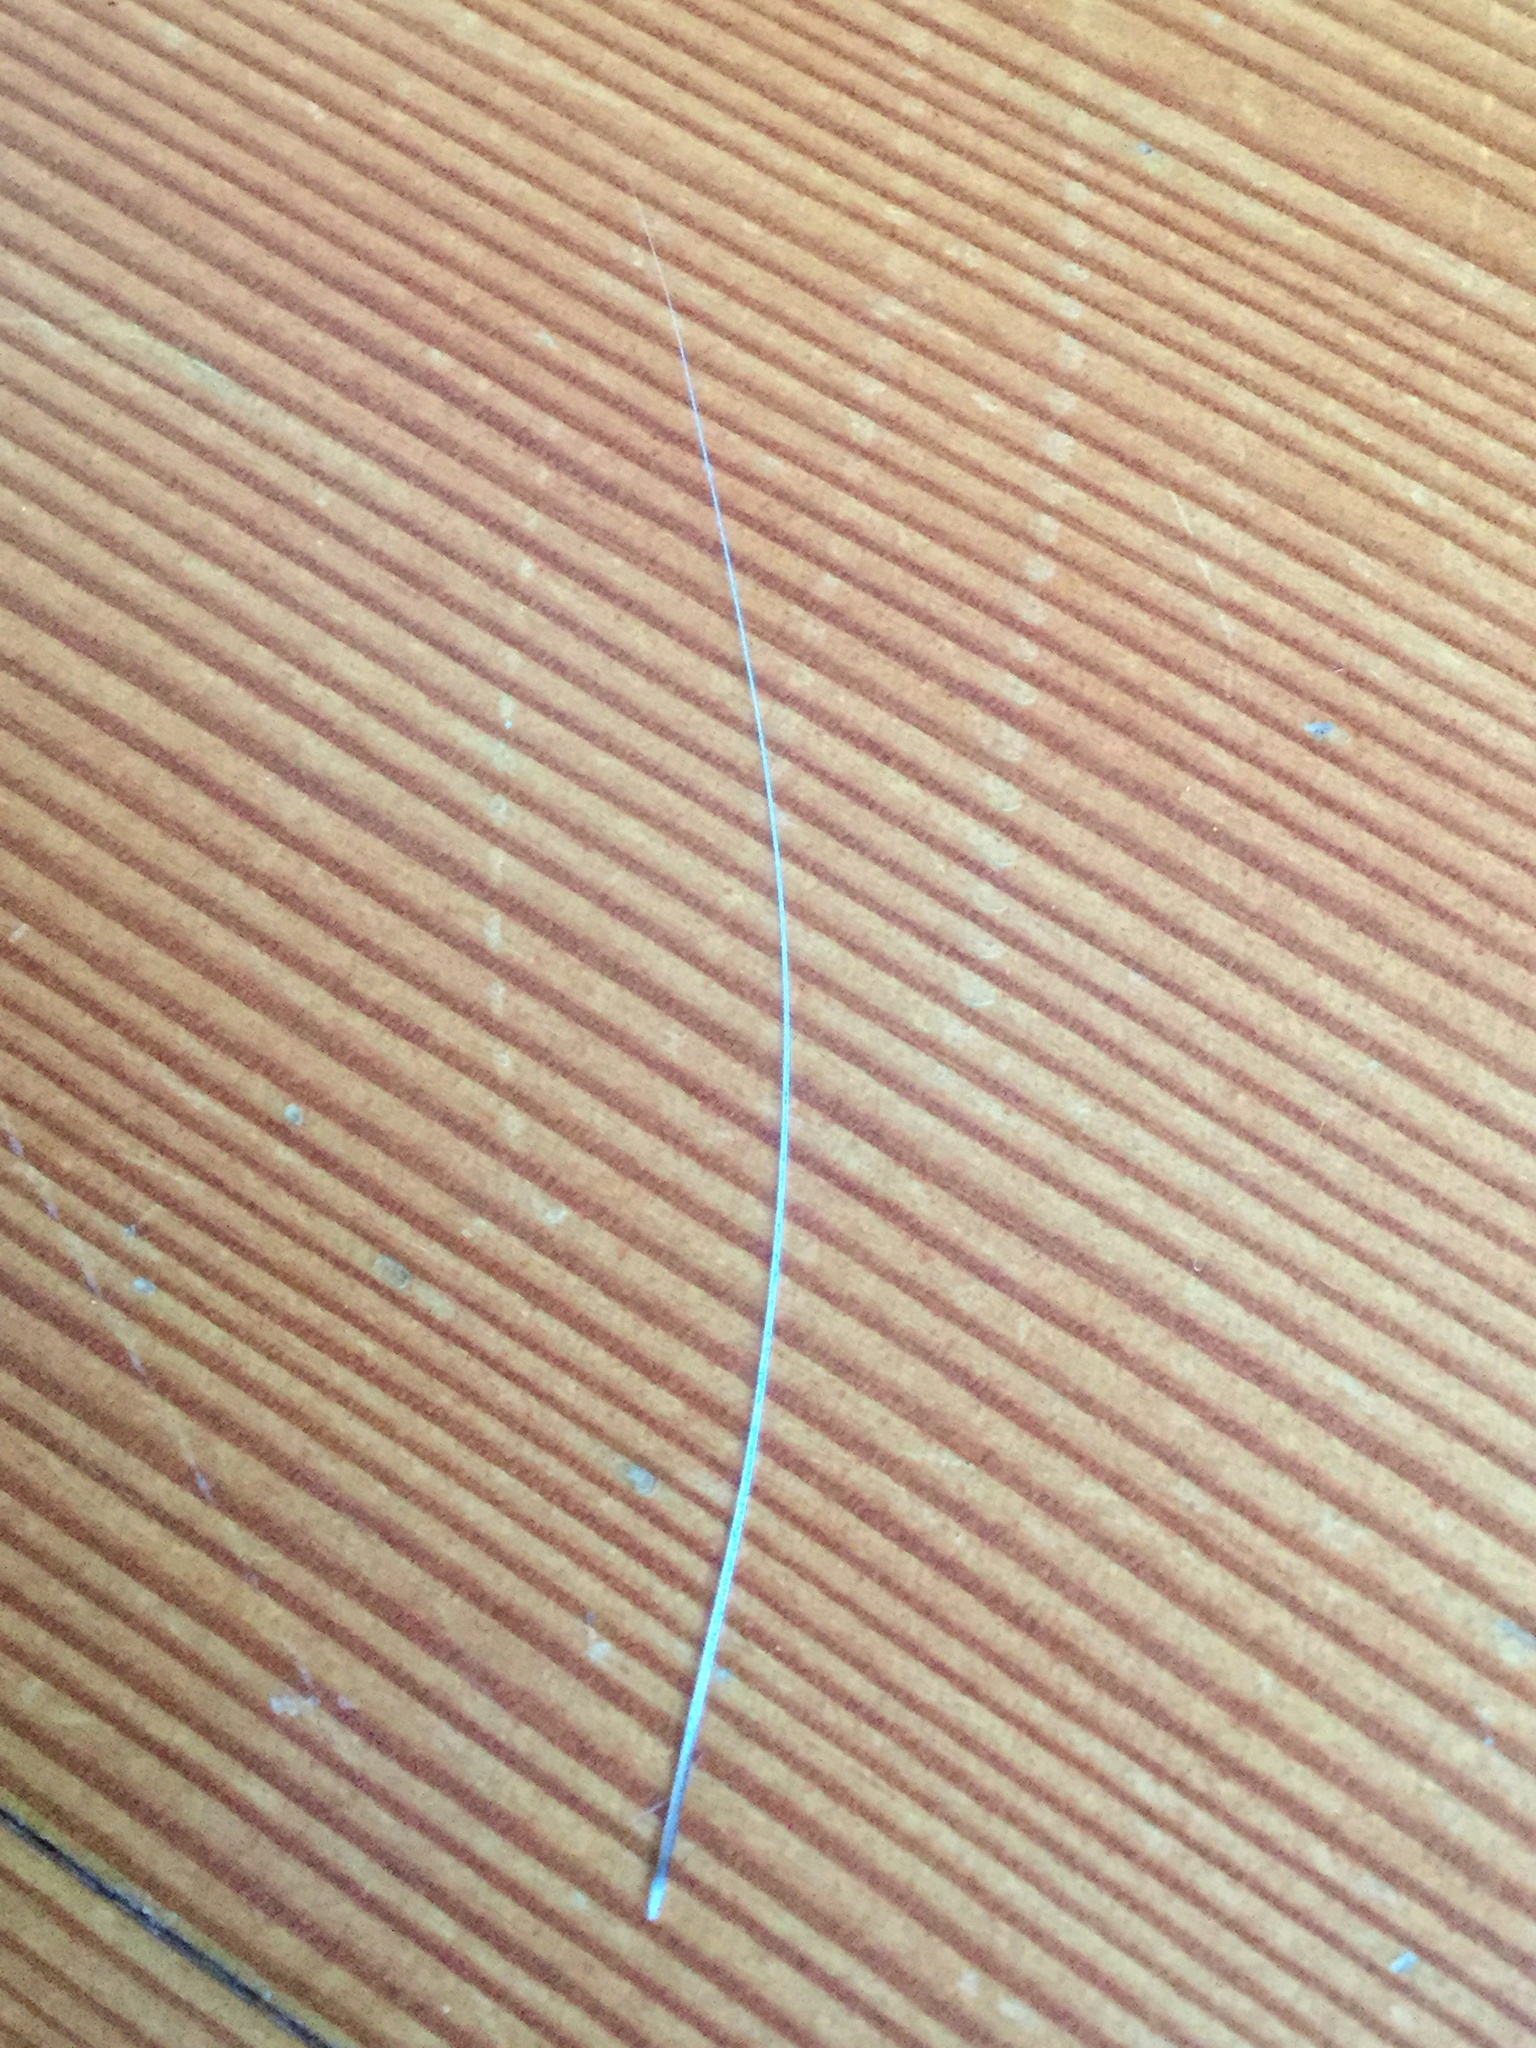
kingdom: Animalia
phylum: Chordata
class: Mammalia
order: Carnivora
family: Felidae
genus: Felis
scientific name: Felis catus
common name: Domestic cat
